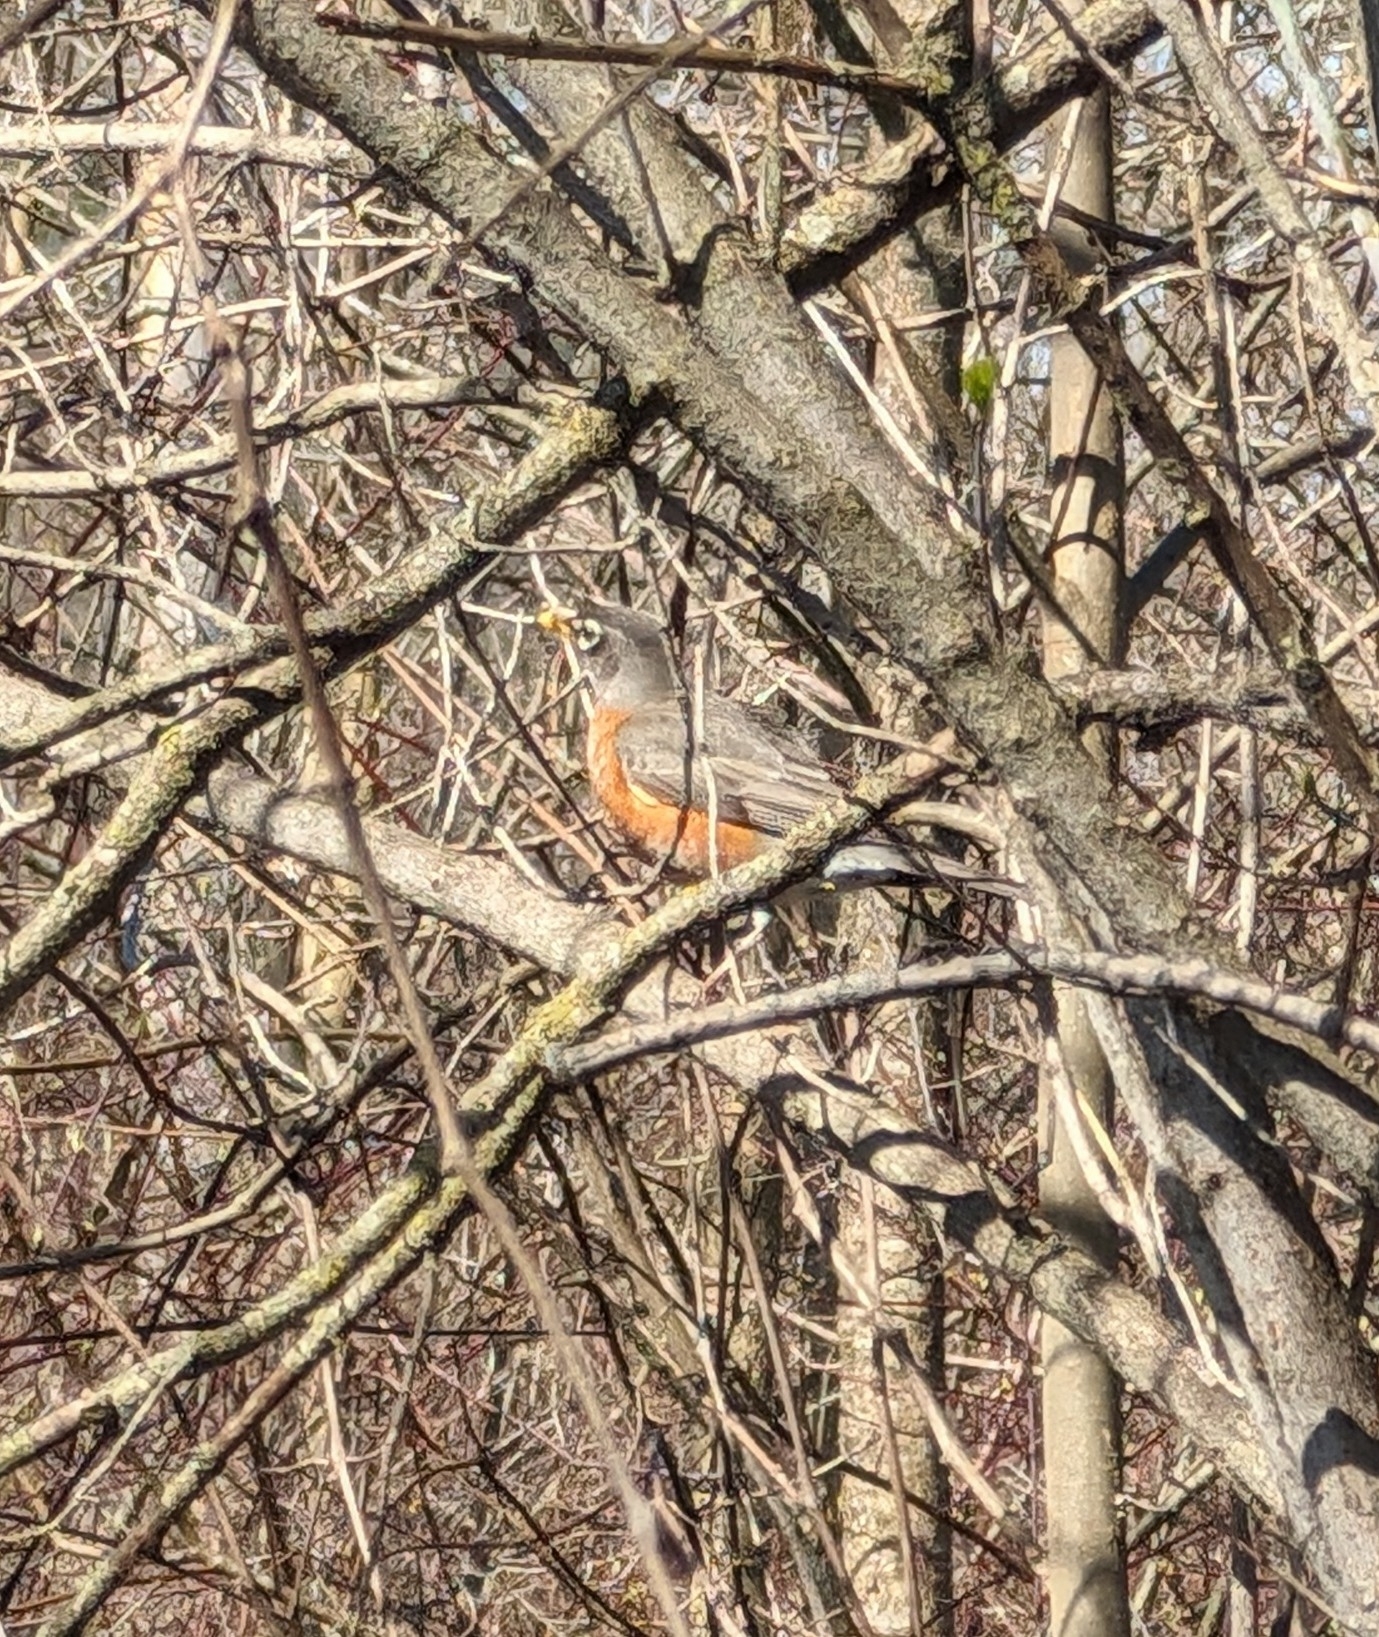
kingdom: Animalia
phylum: Chordata
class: Aves
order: Passeriformes
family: Turdidae
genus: Turdus
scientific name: Turdus migratorius
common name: American robin
